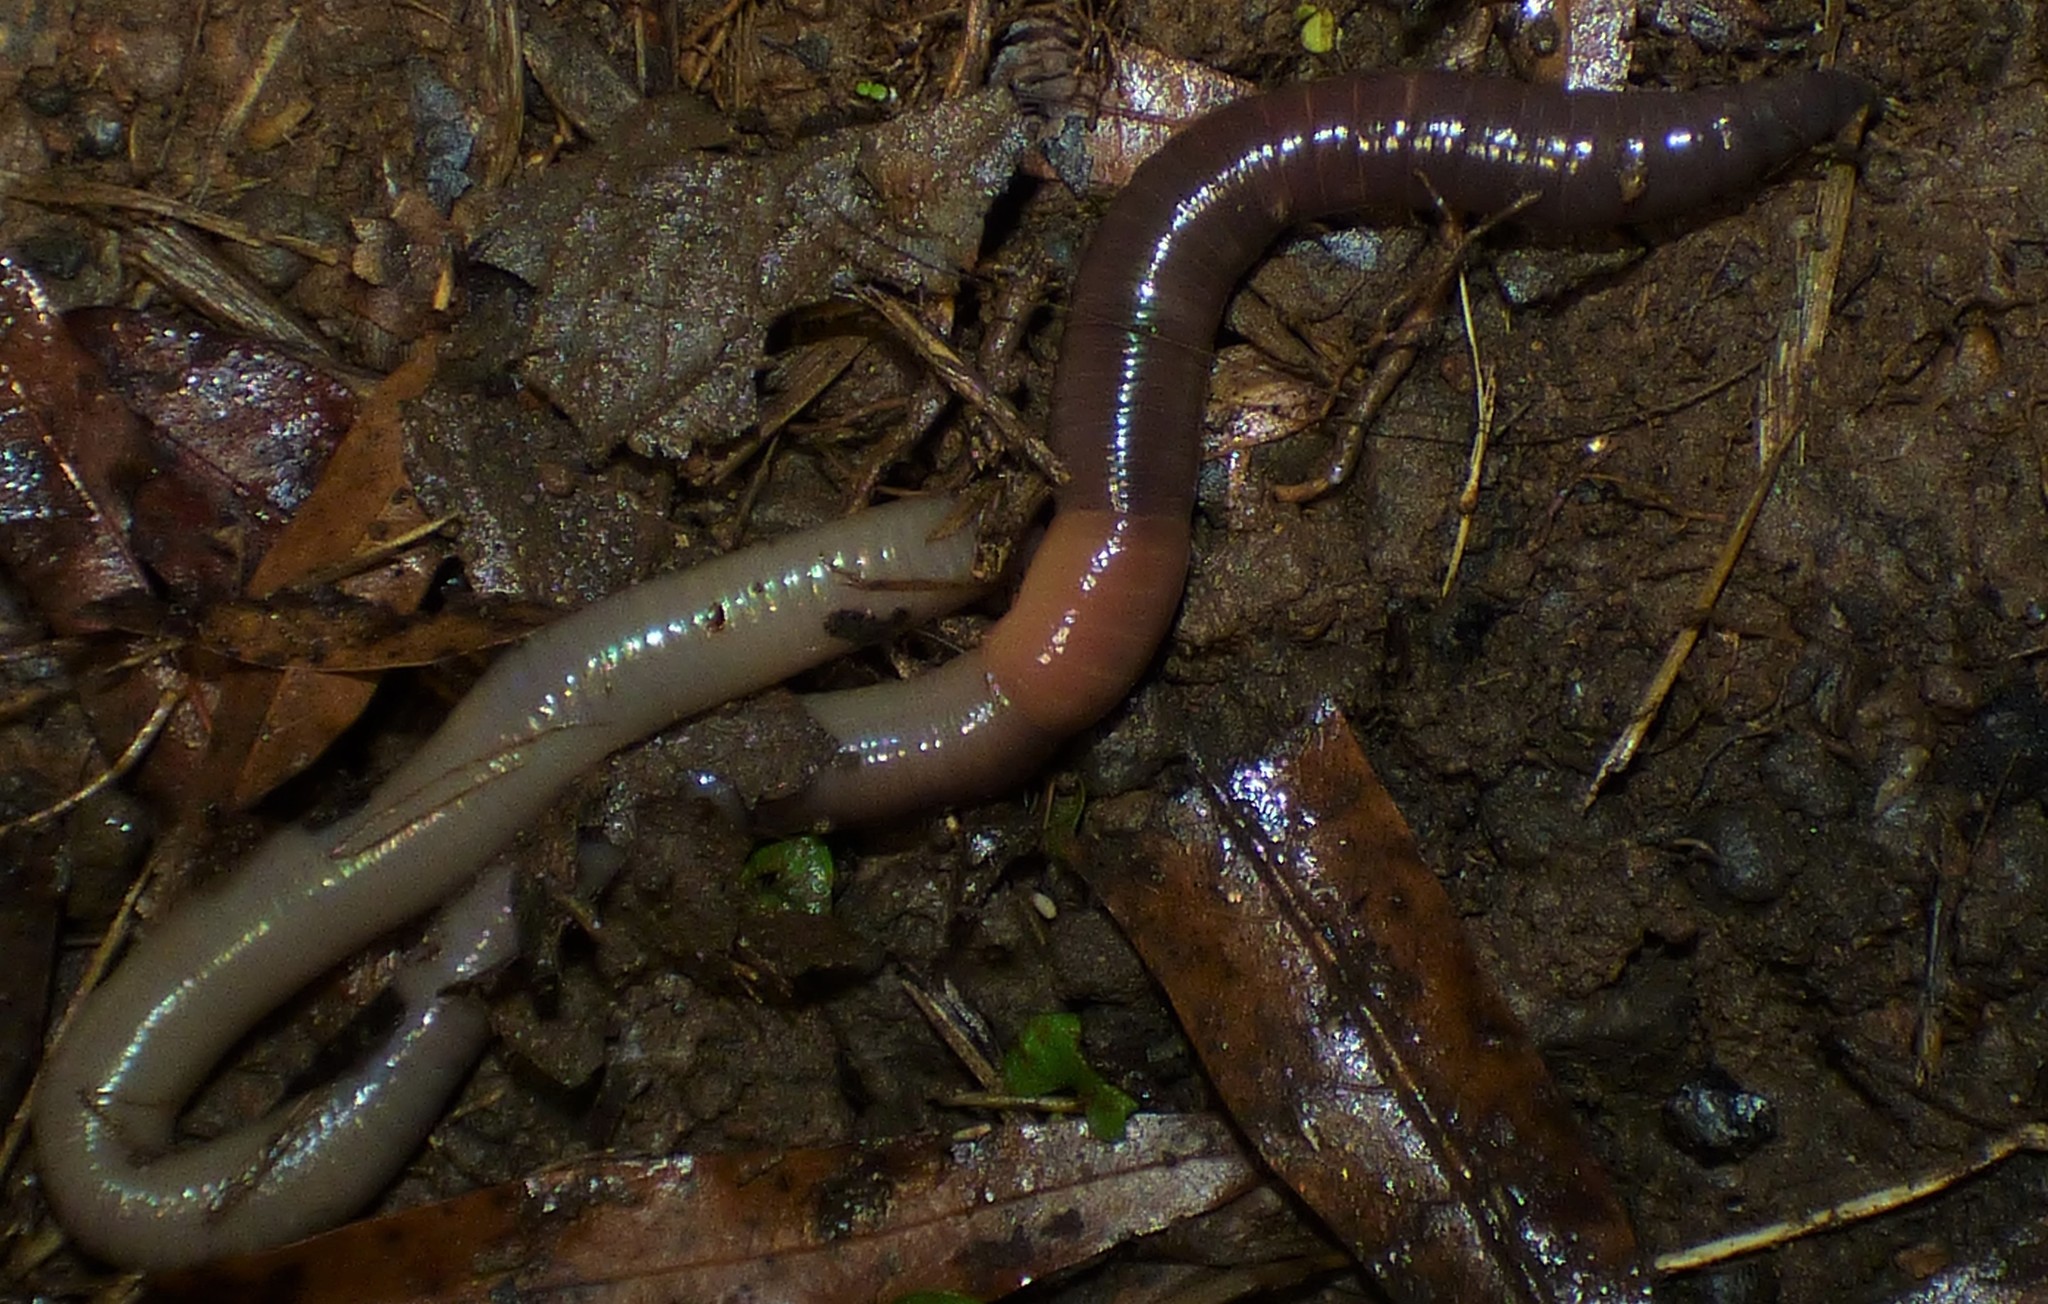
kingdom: Animalia
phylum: Annelida
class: Clitellata
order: Crassiclitellata
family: Lumbricidae
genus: Lumbricus
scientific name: Lumbricus terrestris
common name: Common earthworm
